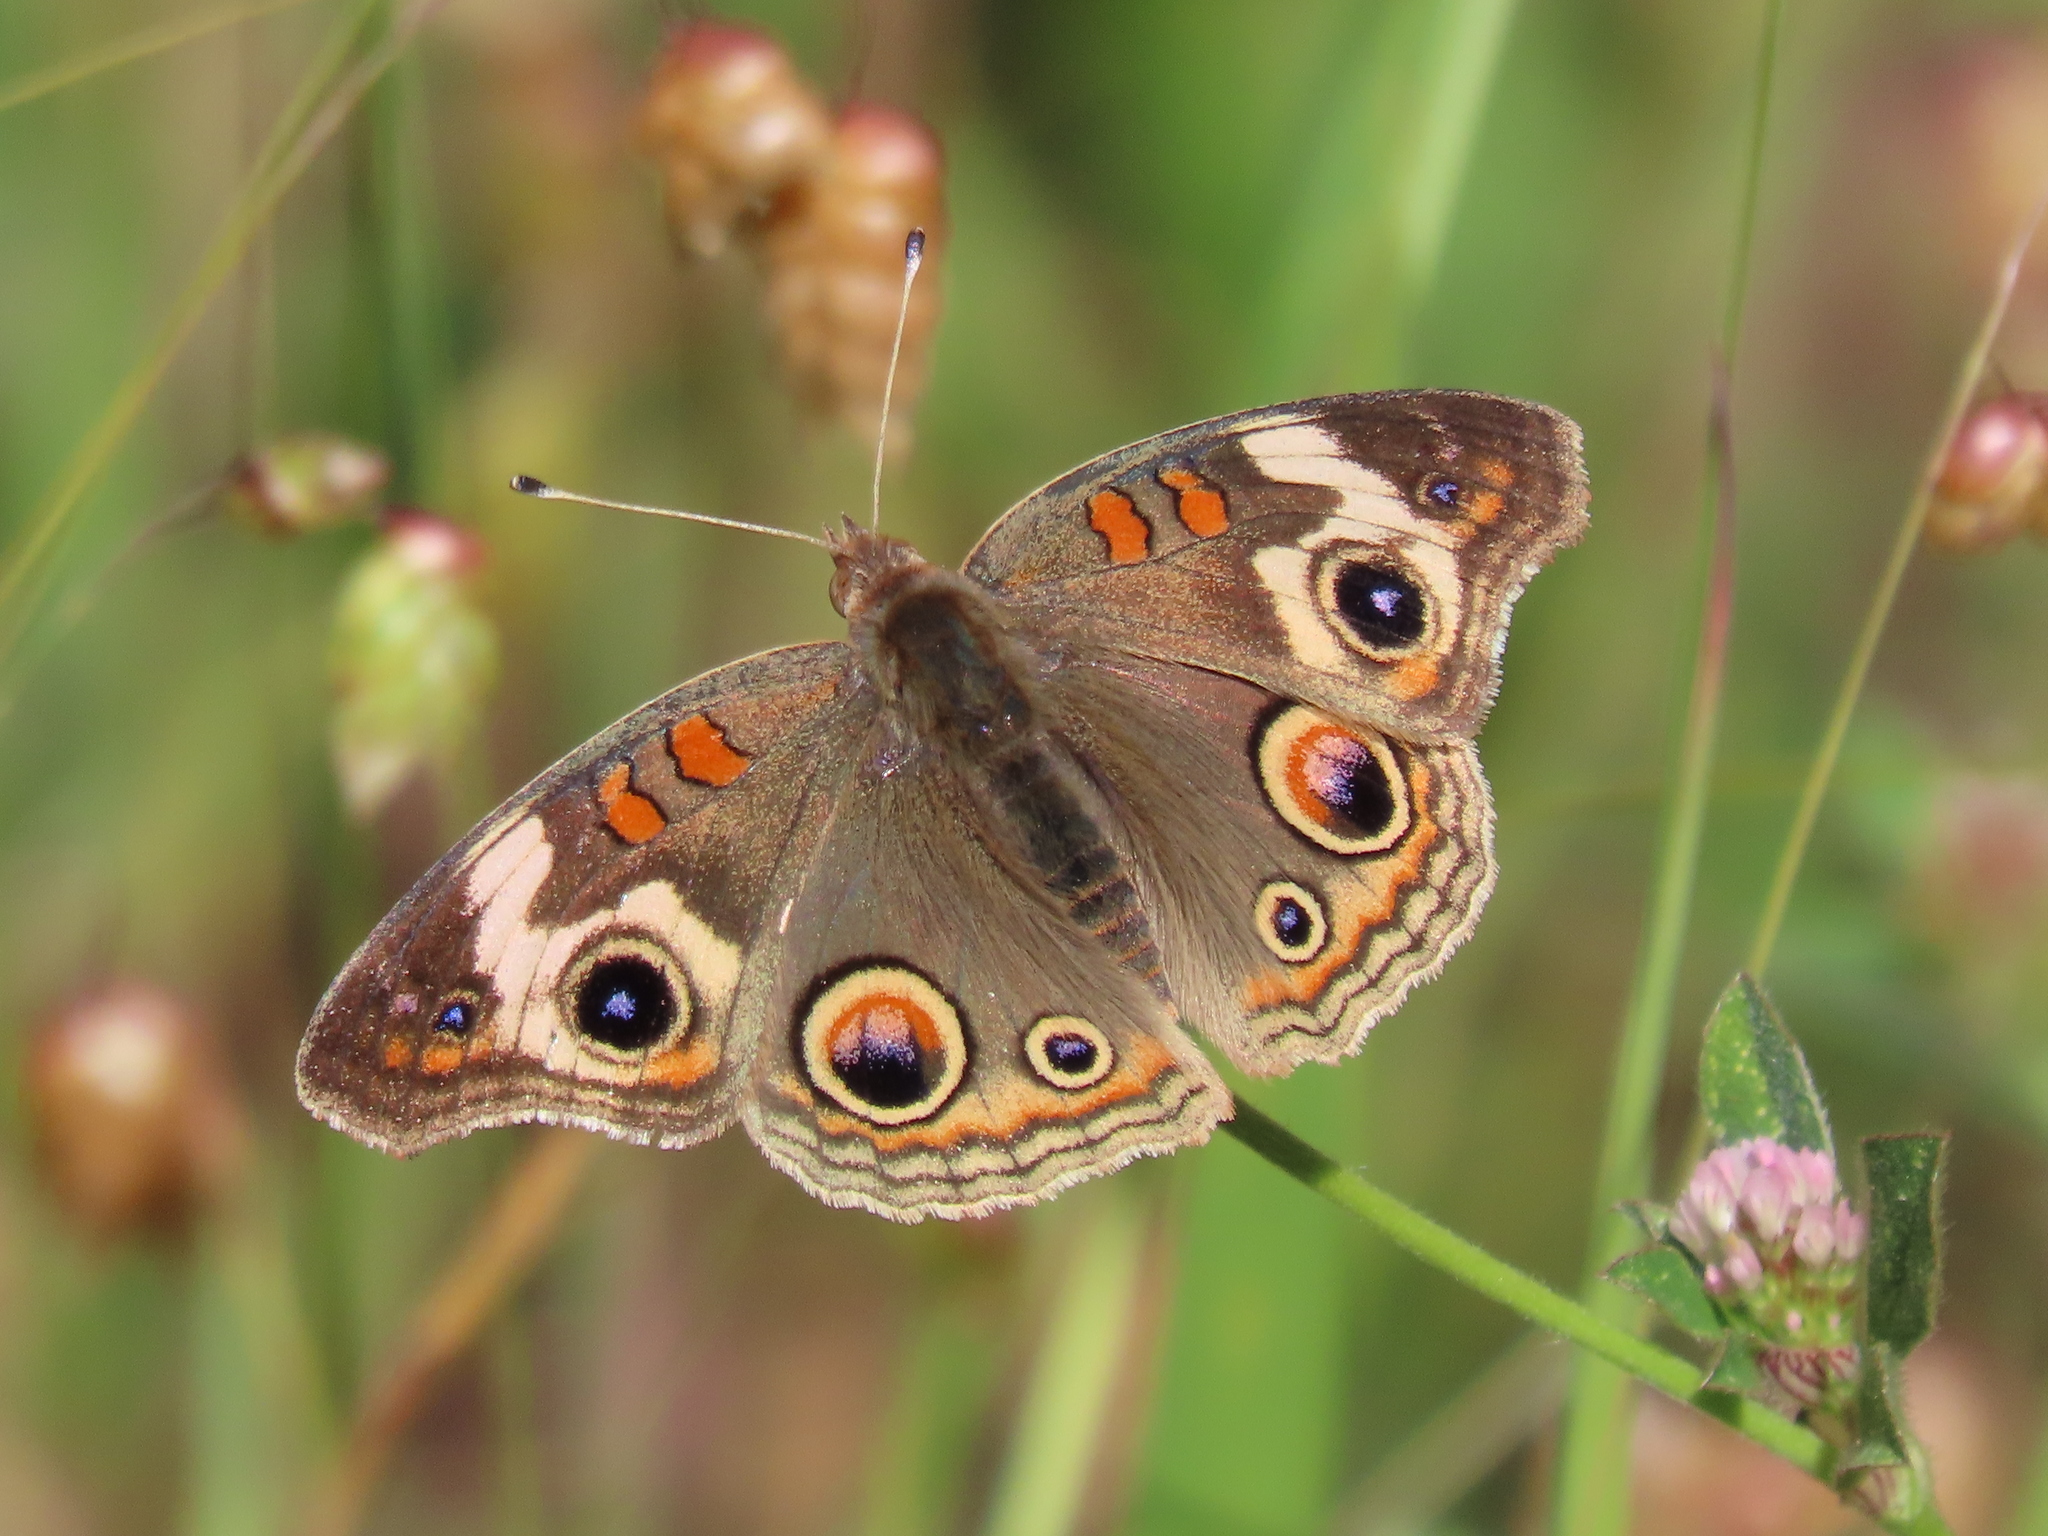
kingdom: Animalia
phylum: Arthropoda
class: Insecta
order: Lepidoptera
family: Nymphalidae
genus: Junonia
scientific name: Junonia grisea
